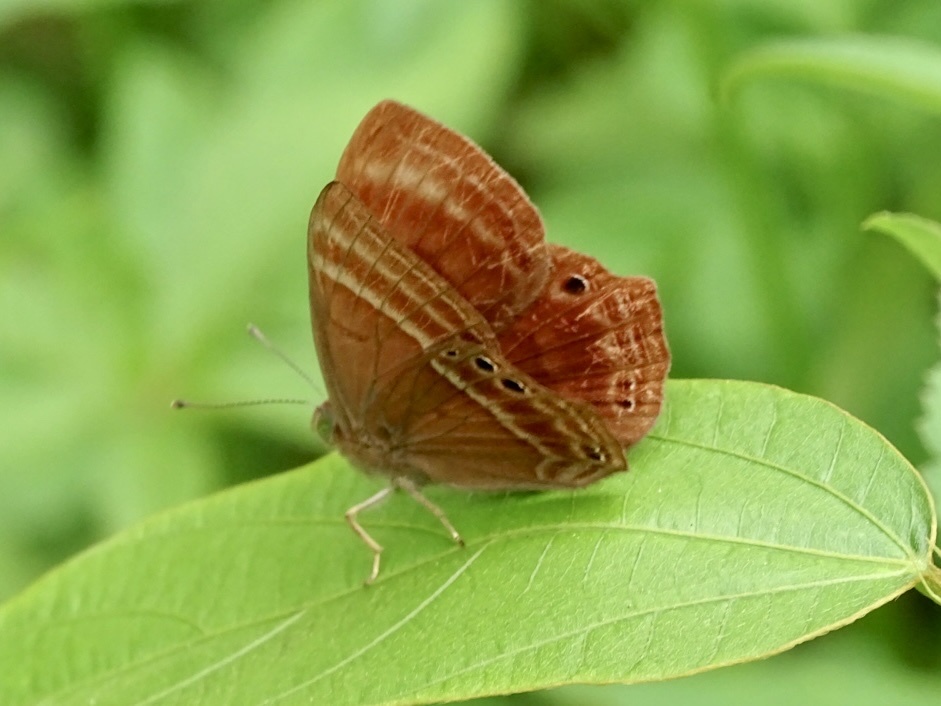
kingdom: Animalia
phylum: Arthropoda
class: Insecta
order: Lepidoptera
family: Lycaenidae
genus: Abisara
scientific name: Abisara echeria
